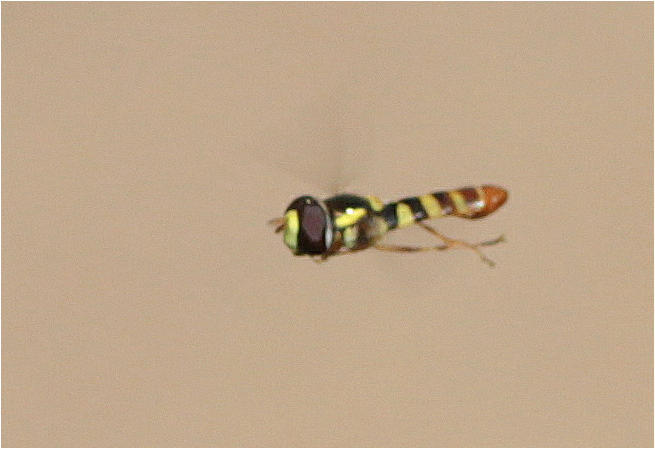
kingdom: Animalia
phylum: Arthropoda
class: Insecta
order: Diptera
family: Syrphidae
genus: Ischiodon
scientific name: Ischiodon aegyptius
